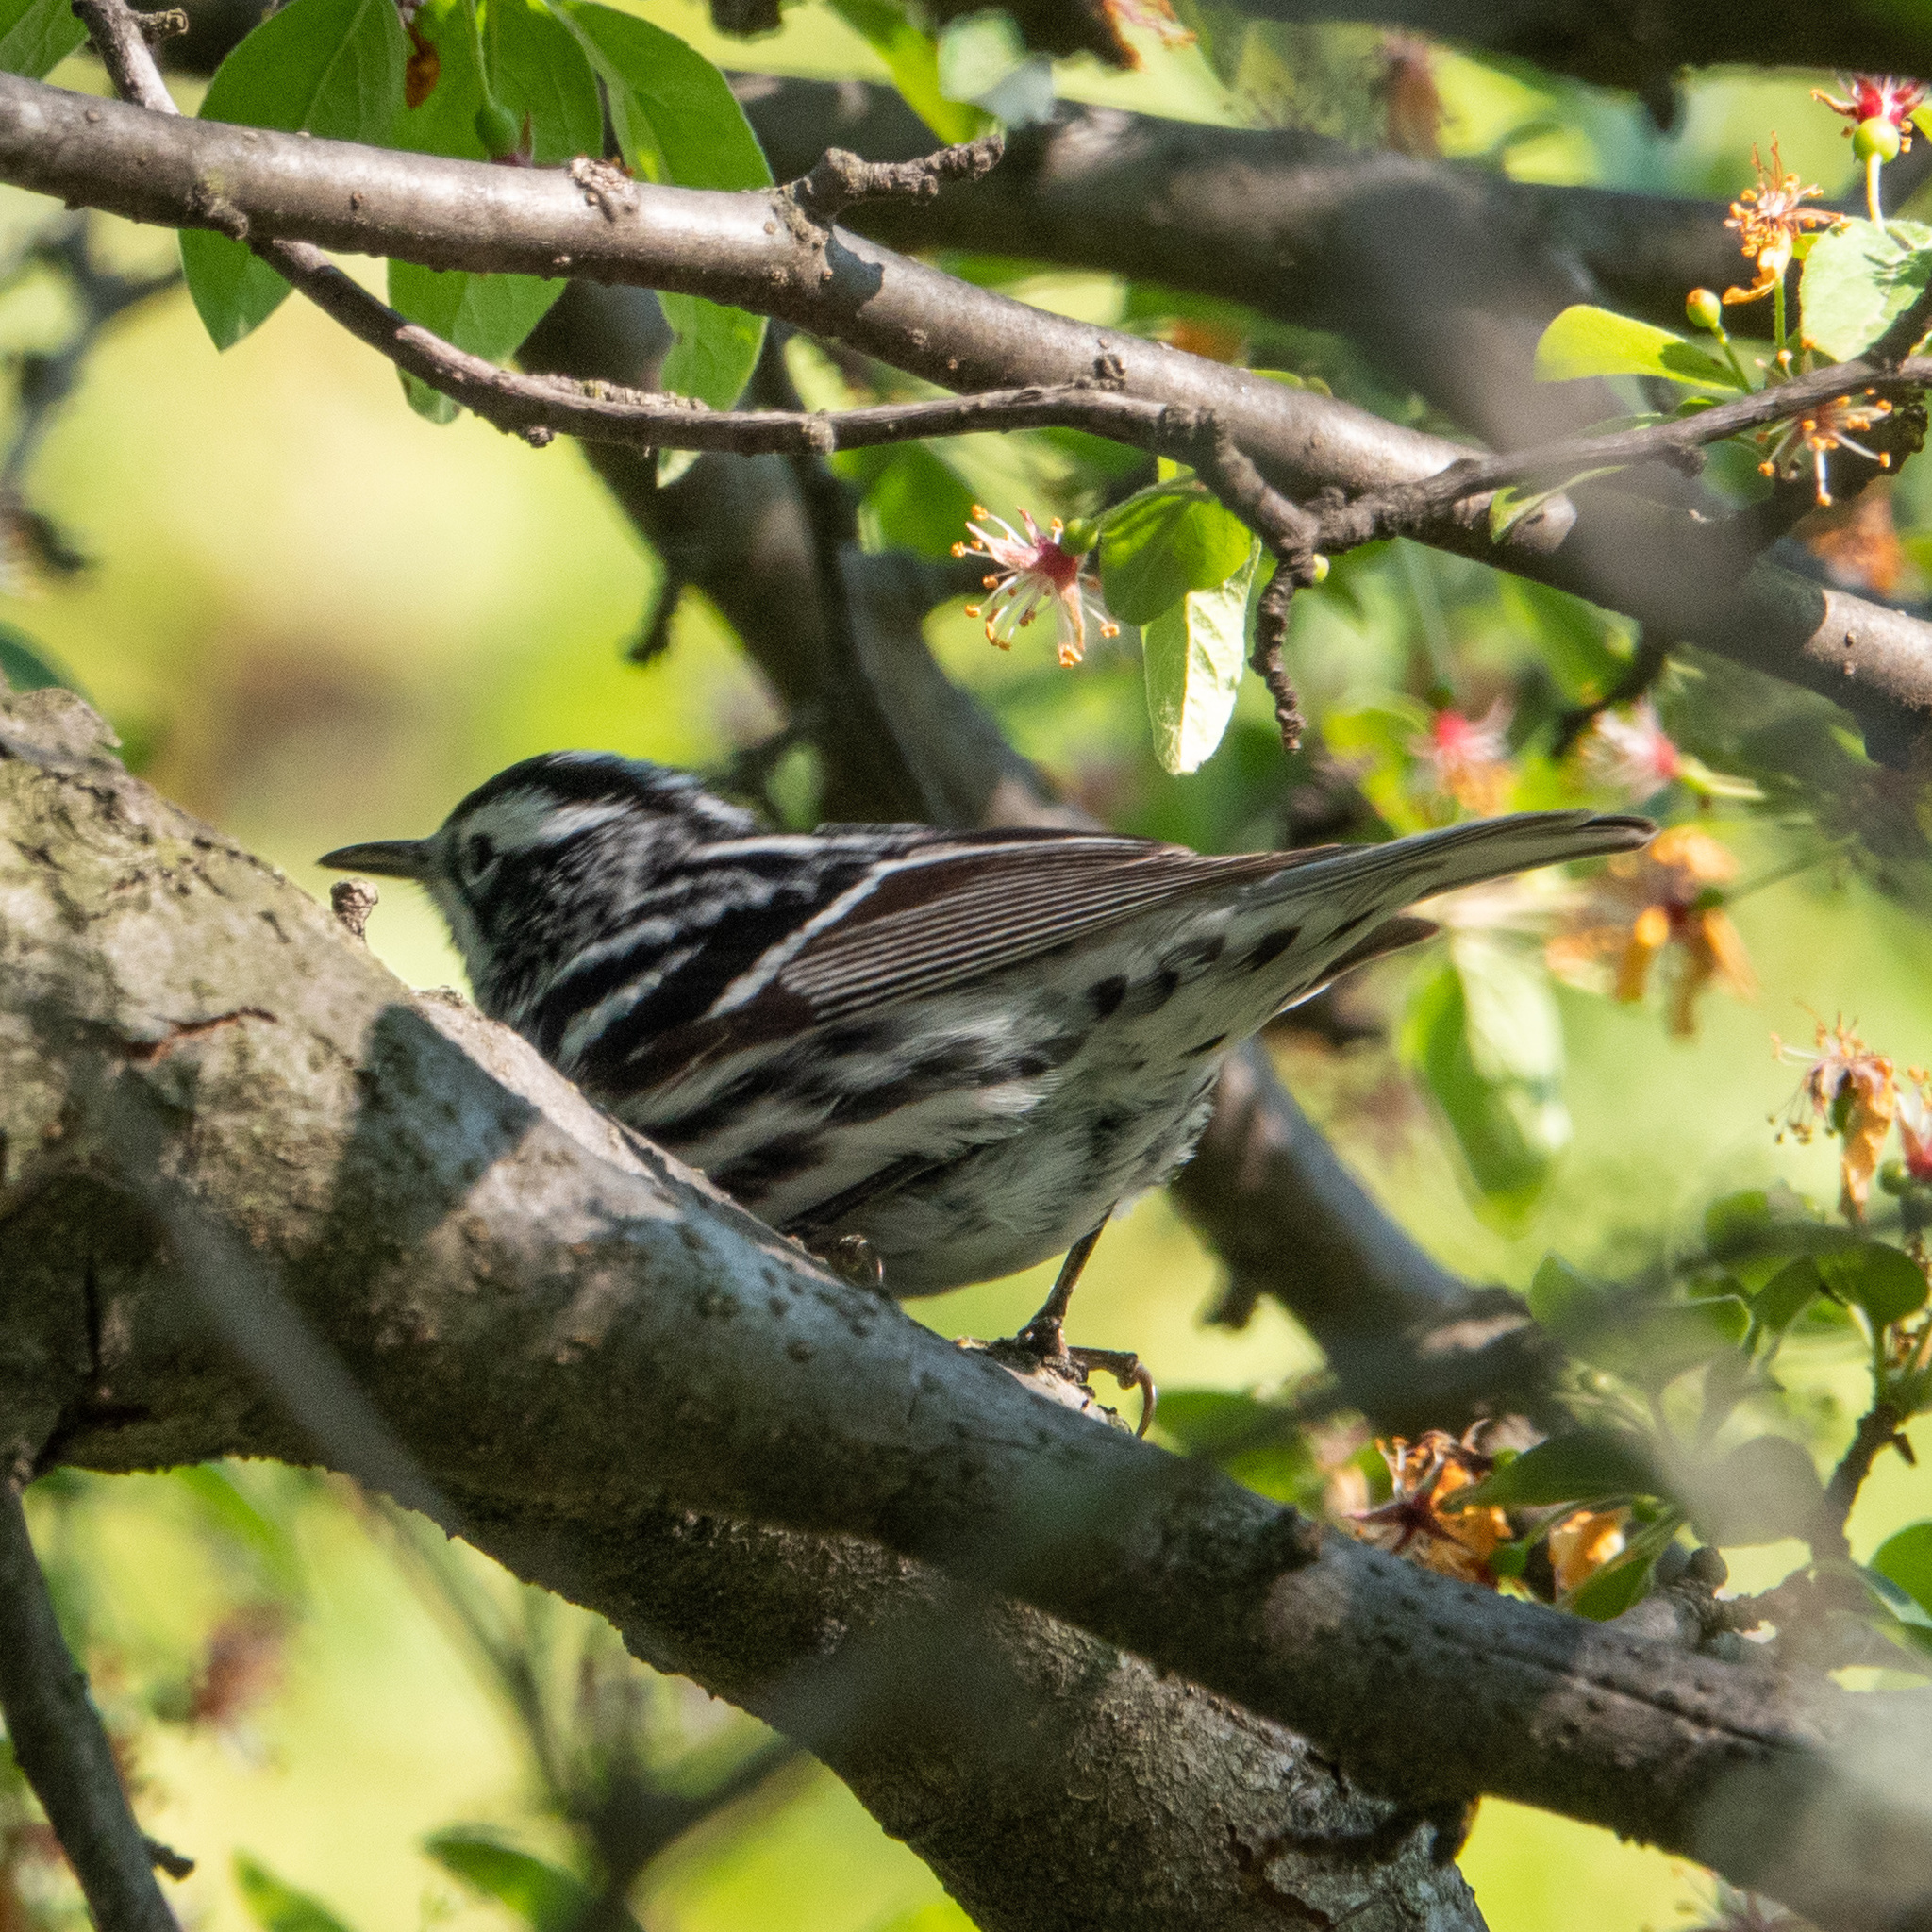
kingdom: Animalia
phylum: Chordata
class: Aves
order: Passeriformes
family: Parulidae
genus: Mniotilta
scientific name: Mniotilta varia
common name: Black-and-white warbler
